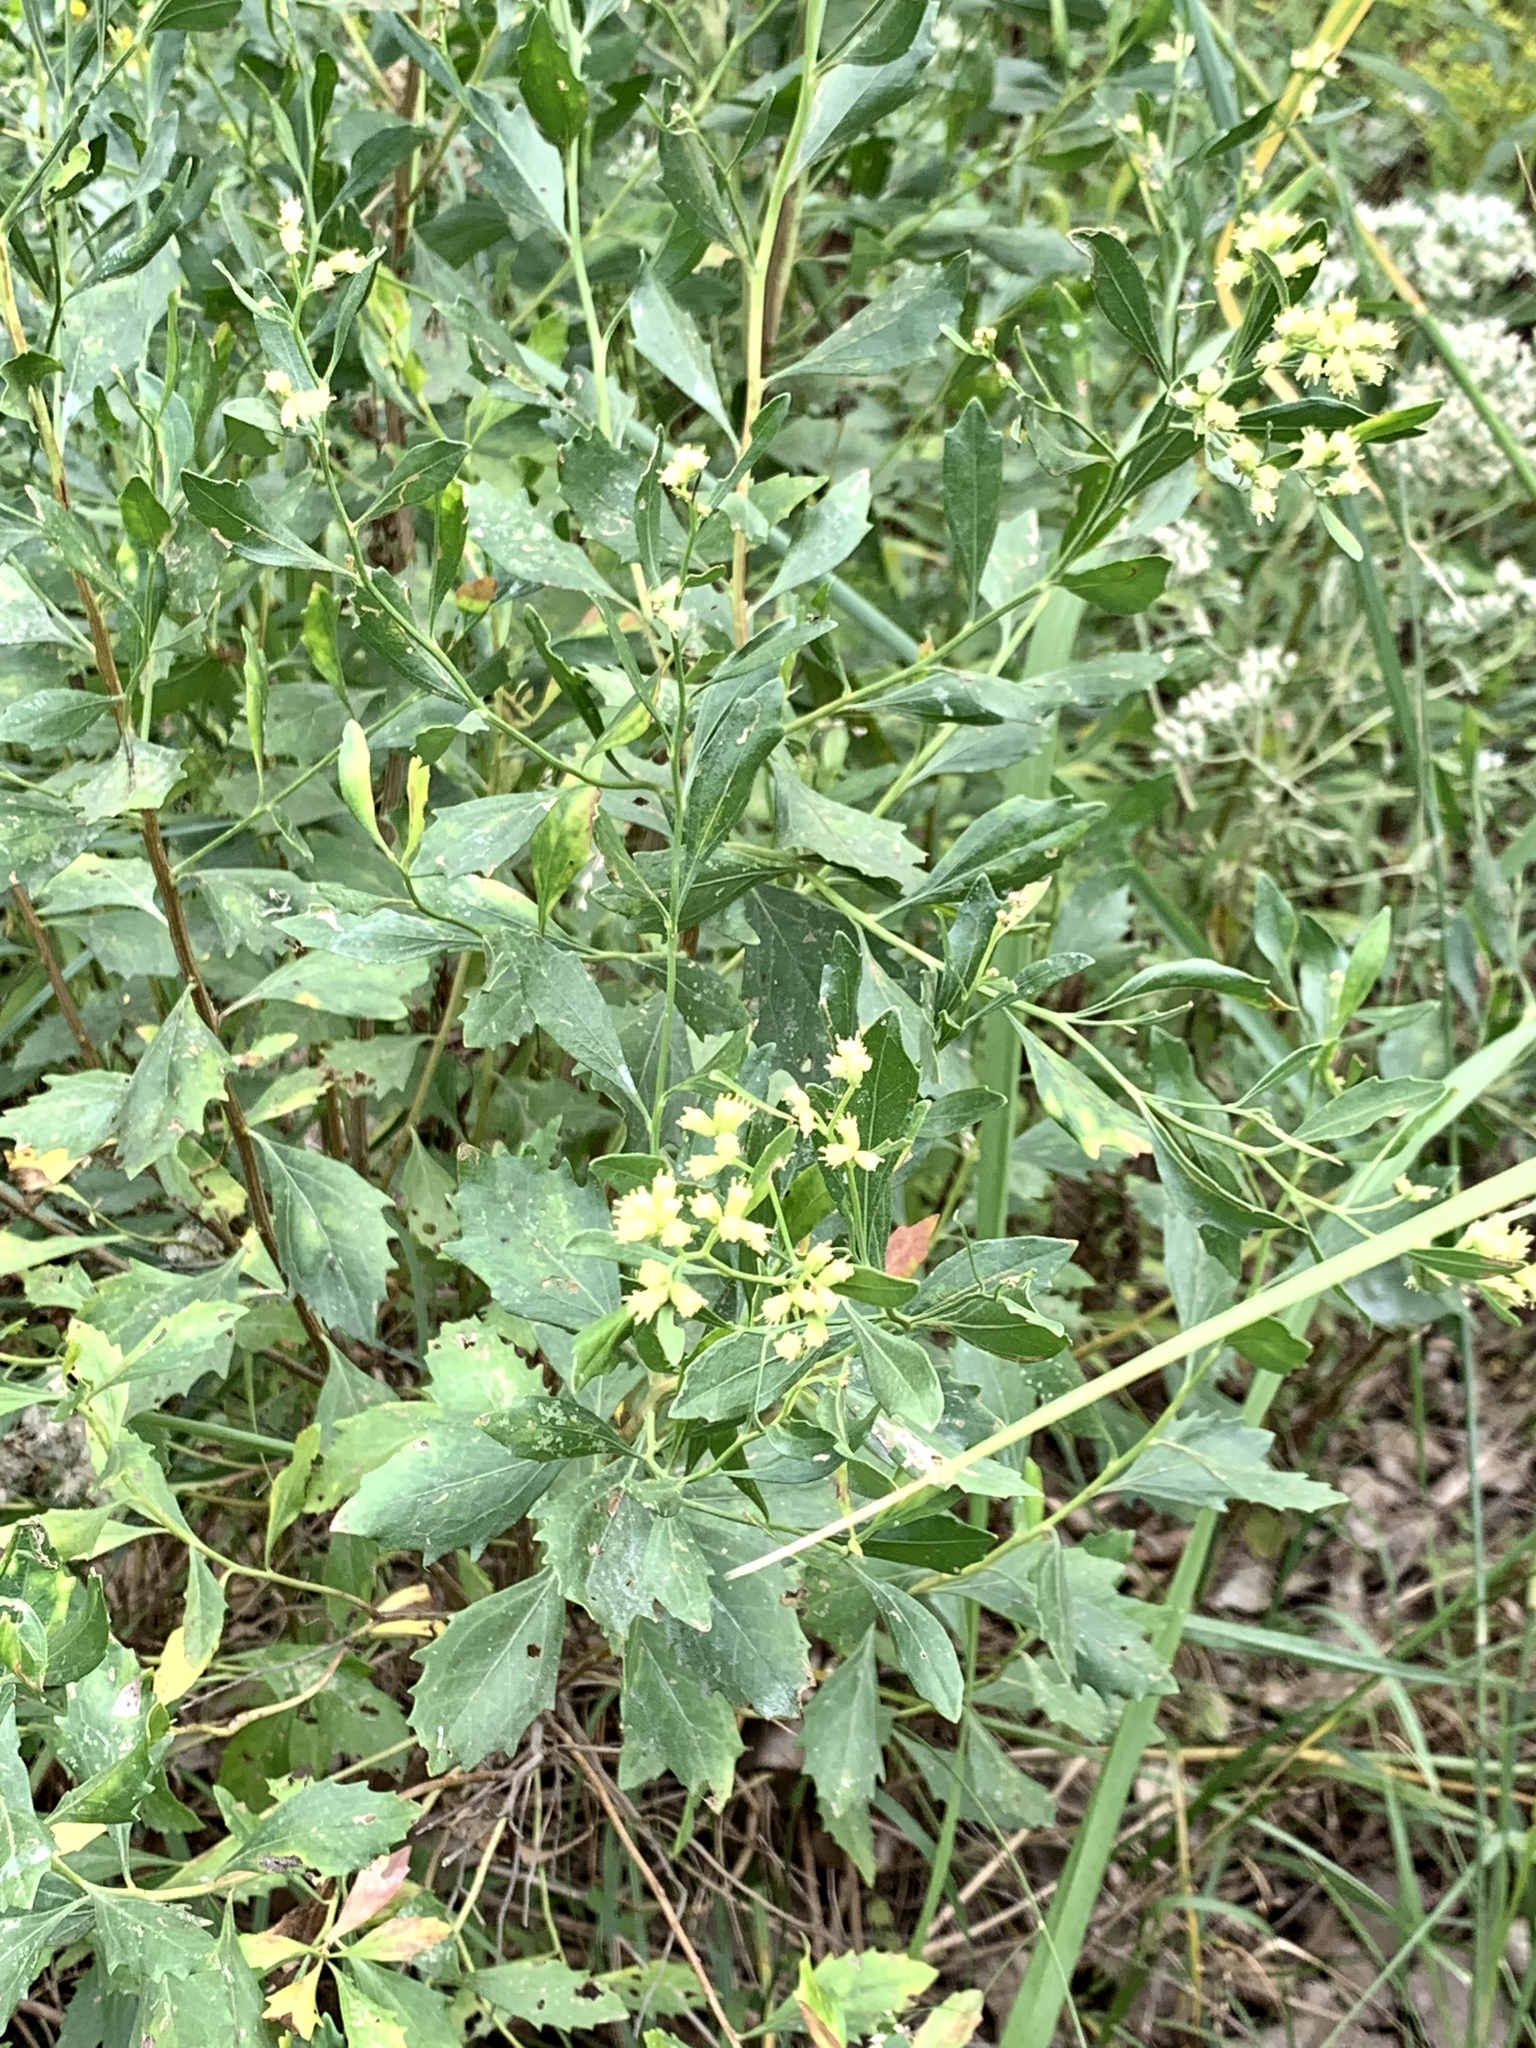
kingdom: Plantae
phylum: Tracheophyta
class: Magnoliopsida
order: Asterales
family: Asteraceae
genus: Baccharis
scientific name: Baccharis halimifolia
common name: Eastern baccharis
